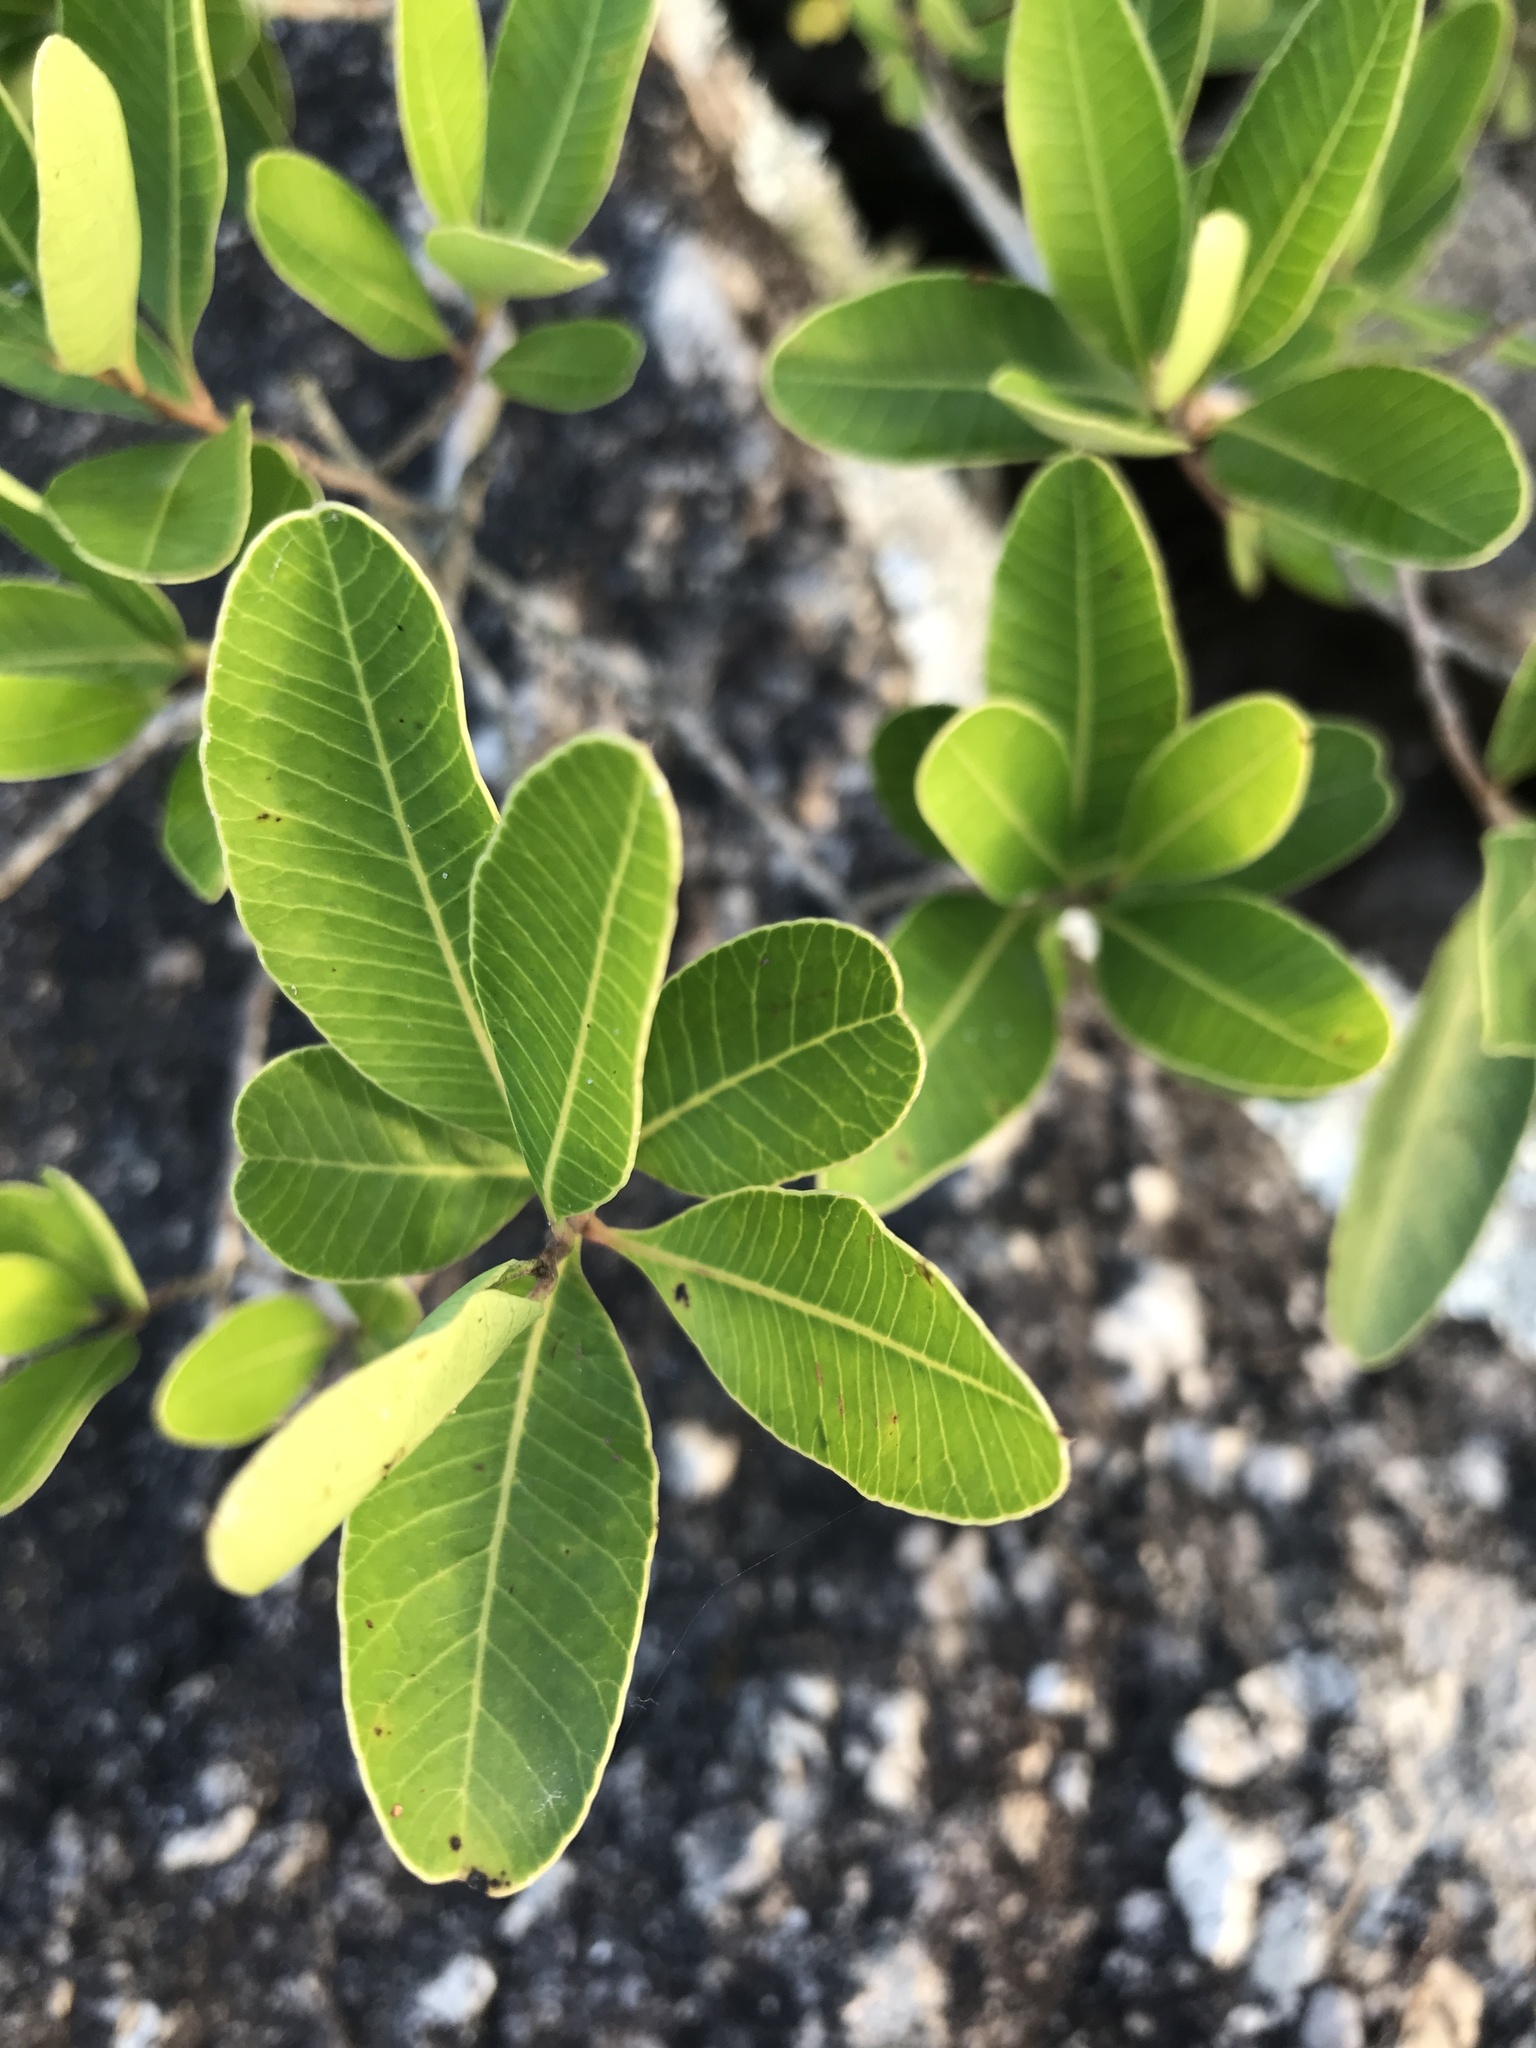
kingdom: Plantae
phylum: Tracheophyta
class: Magnoliopsida
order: Sapindales
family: Anacardiaceae
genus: Lithraea
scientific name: Lithraea brasiliensis
